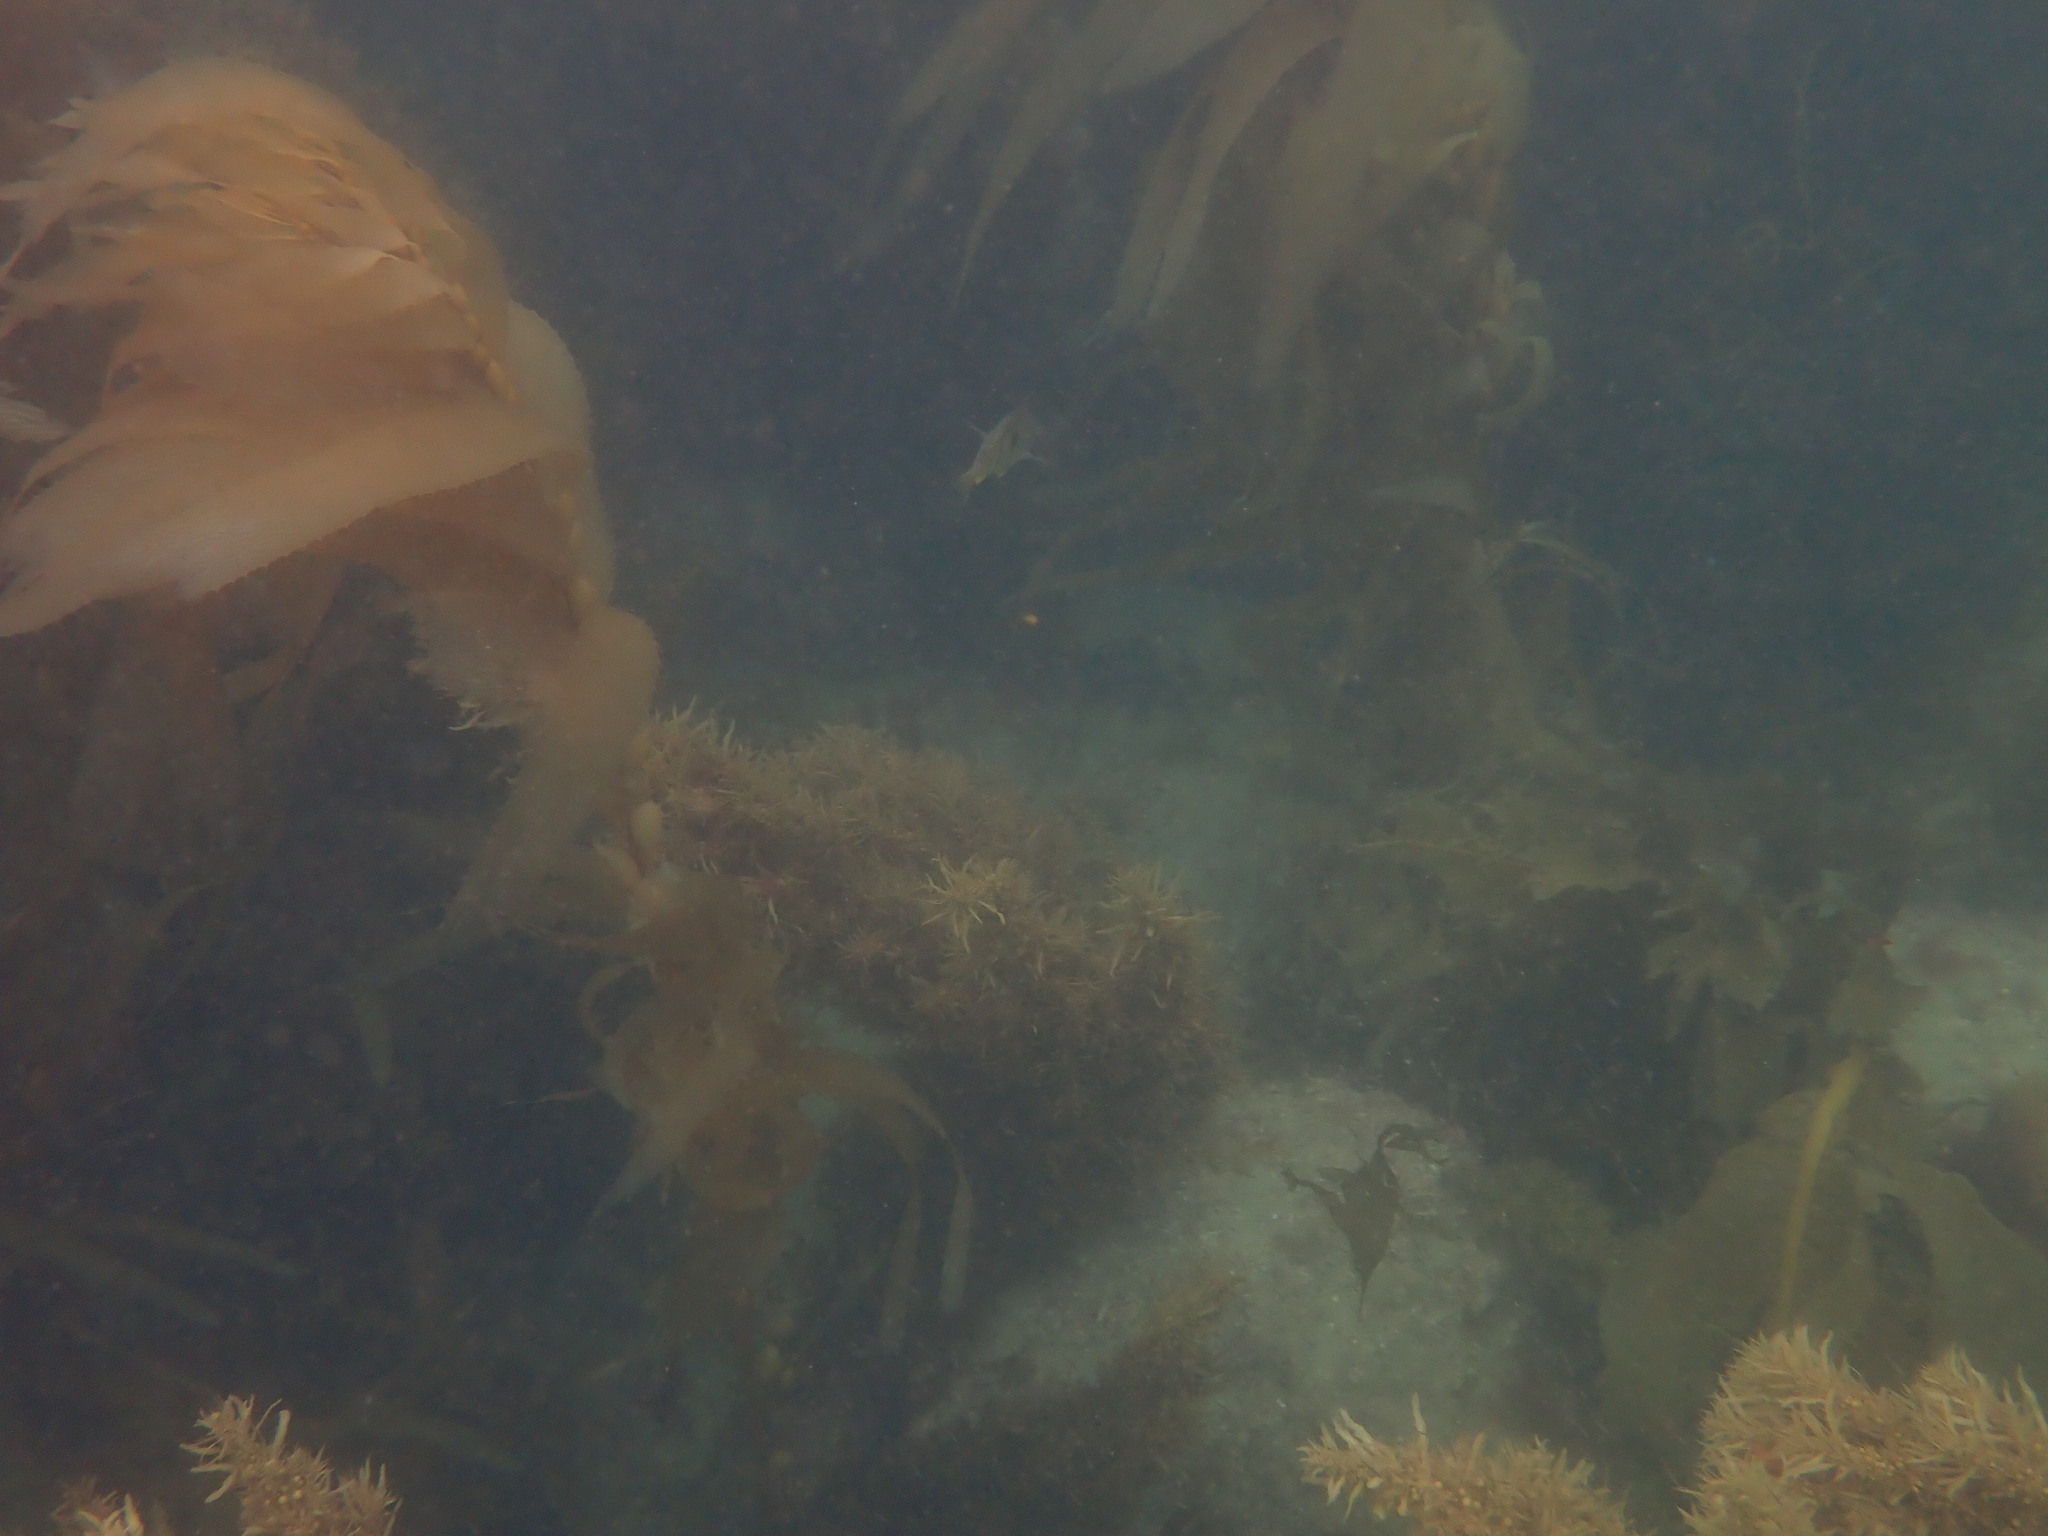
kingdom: Chromista
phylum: Ochrophyta
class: Phaeophyceae
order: Laminariales
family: Laminariaceae
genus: Macrocystis
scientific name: Macrocystis pyrifera
